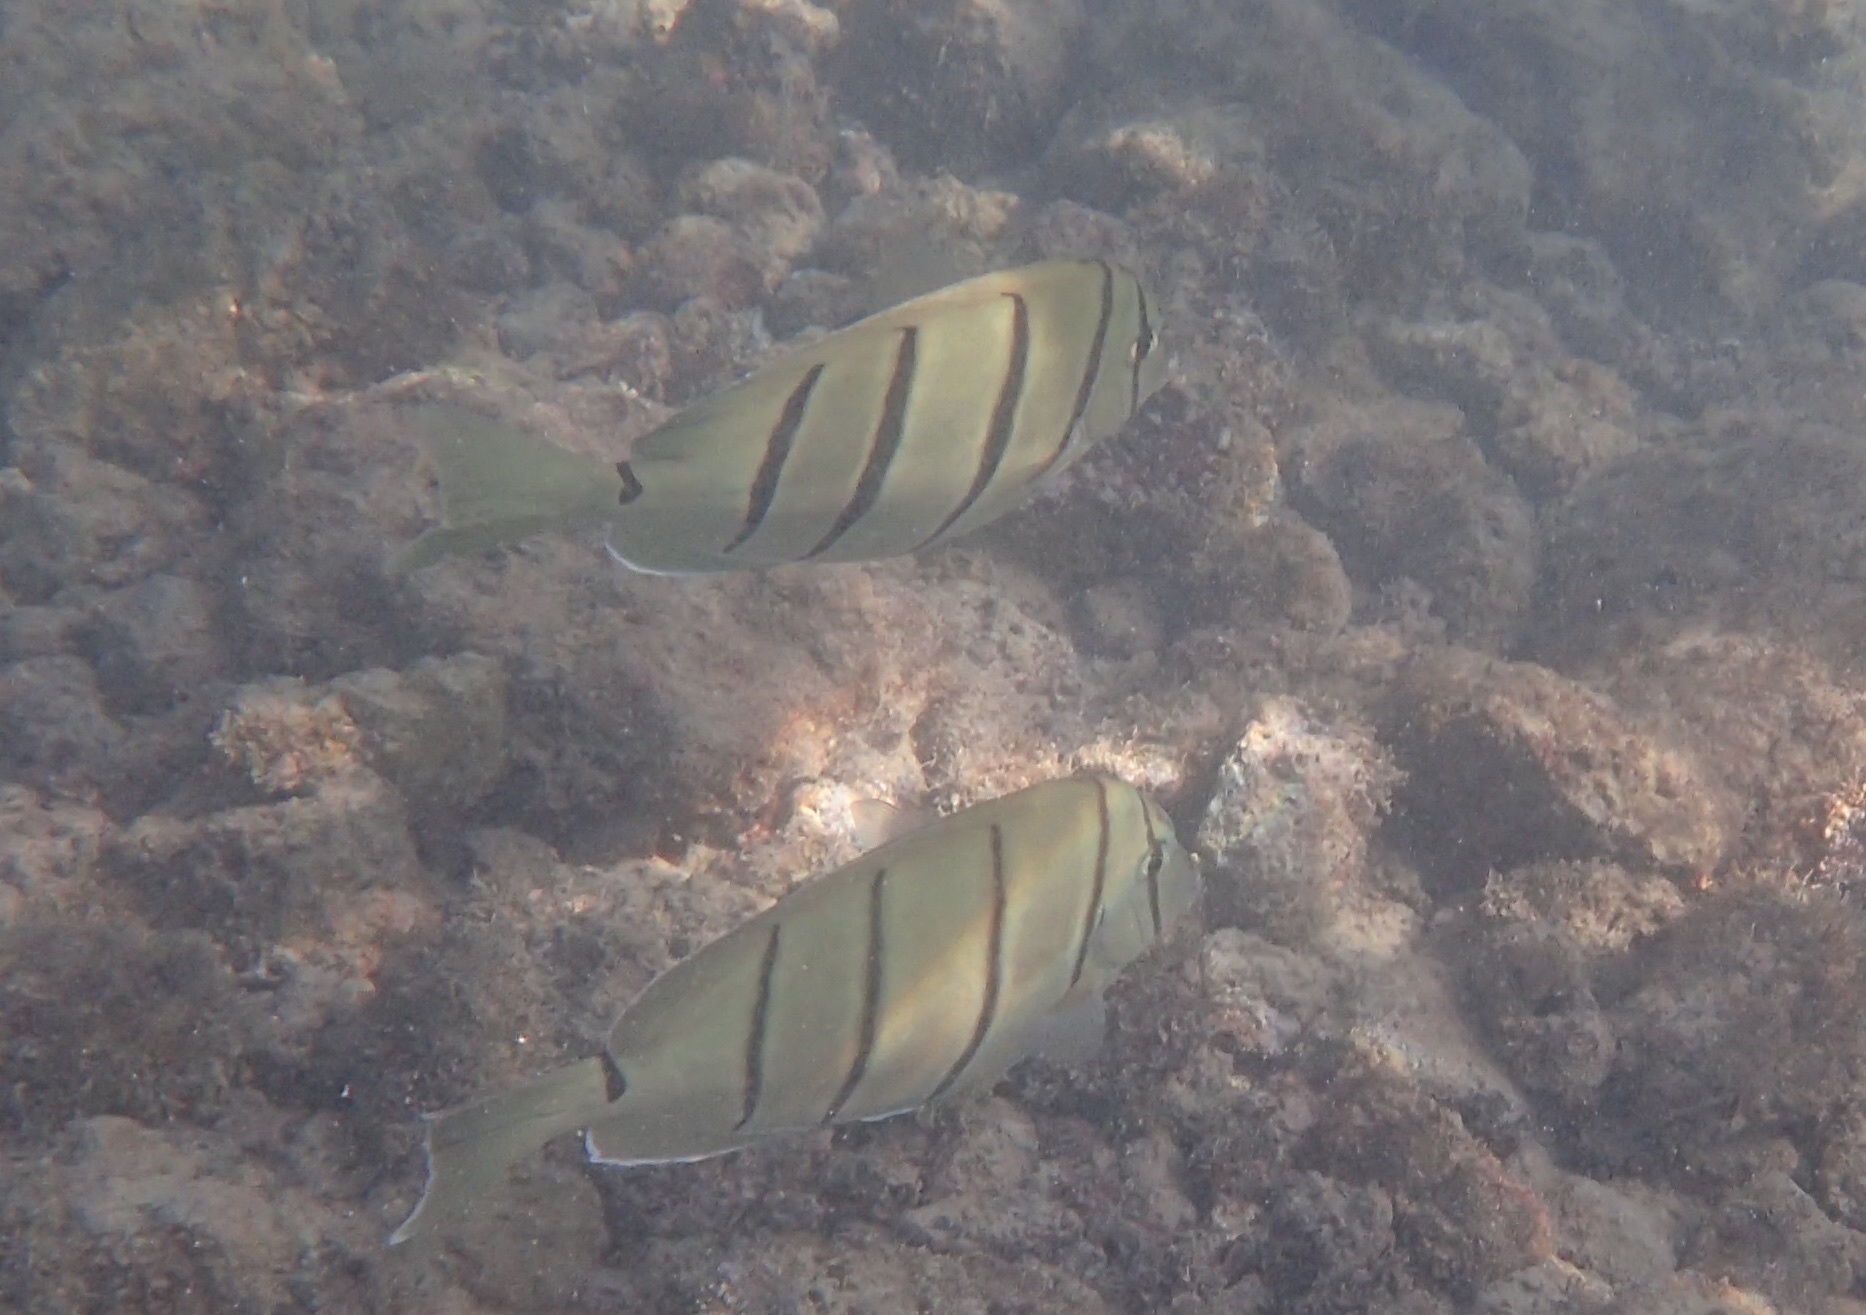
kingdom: Animalia
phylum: Chordata
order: Perciformes
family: Acanthuridae
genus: Acanthurus
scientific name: Acanthurus triostegus
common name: Convict surgeonfish
